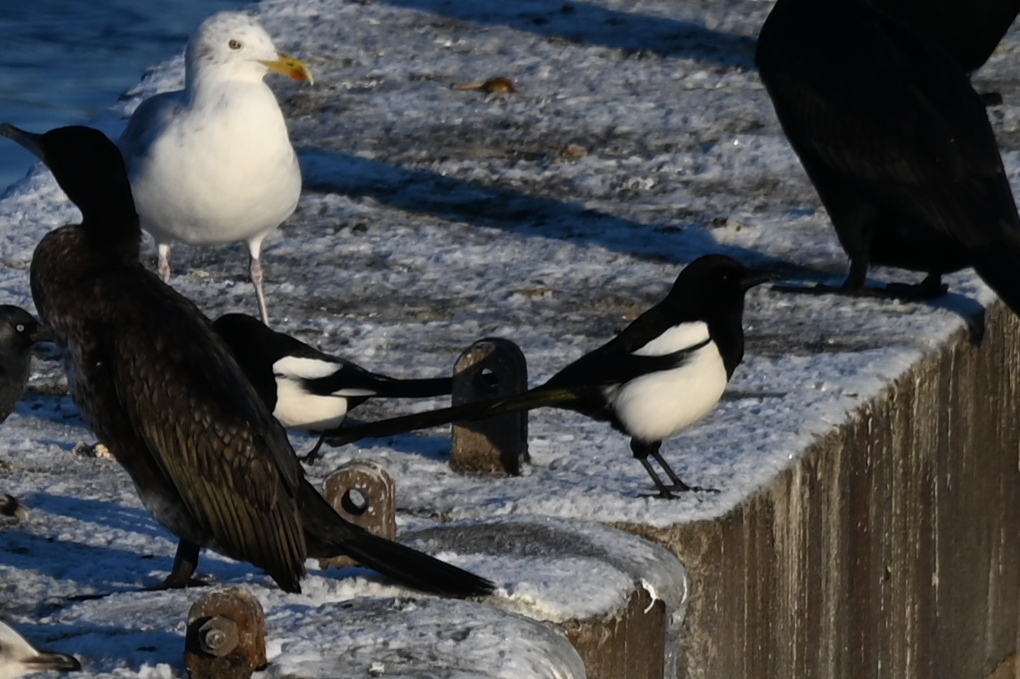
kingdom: Animalia
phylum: Chordata
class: Aves
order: Passeriformes
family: Corvidae
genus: Pica
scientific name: Pica pica
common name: Eurasian magpie
